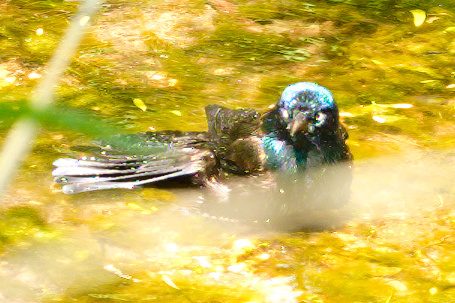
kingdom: Animalia
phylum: Chordata
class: Aves
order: Passeriformes
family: Icteridae
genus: Quiscalus
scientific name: Quiscalus quiscula
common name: Common grackle
